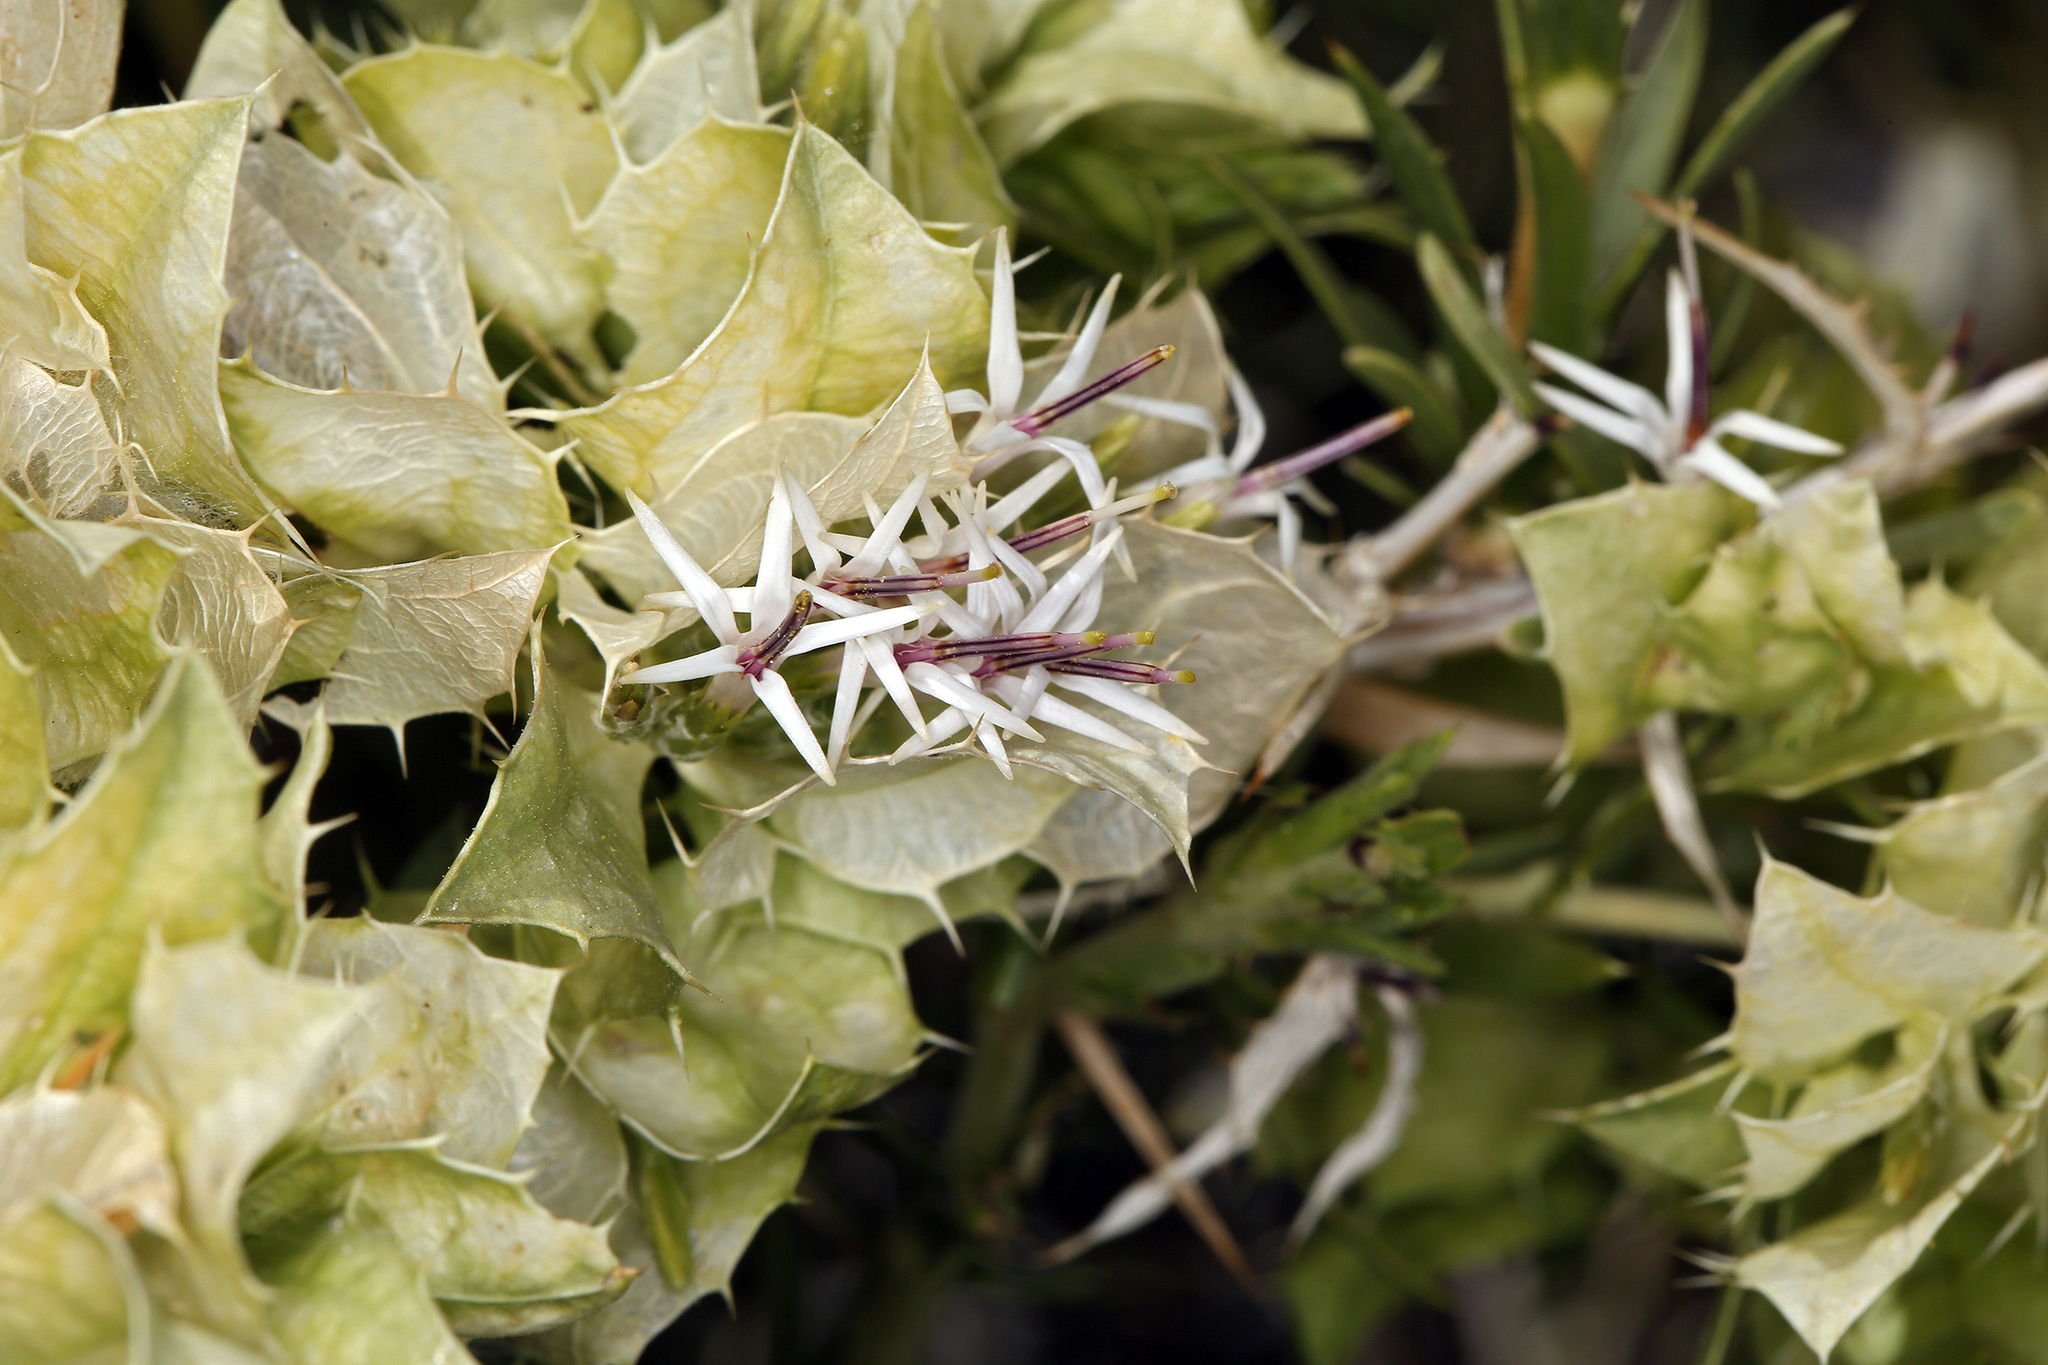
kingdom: Plantae
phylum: Tracheophyta
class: Magnoliopsida
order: Asterales
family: Asteraceae
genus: Hecastocleis
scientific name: Hecastocleis shockleyi
